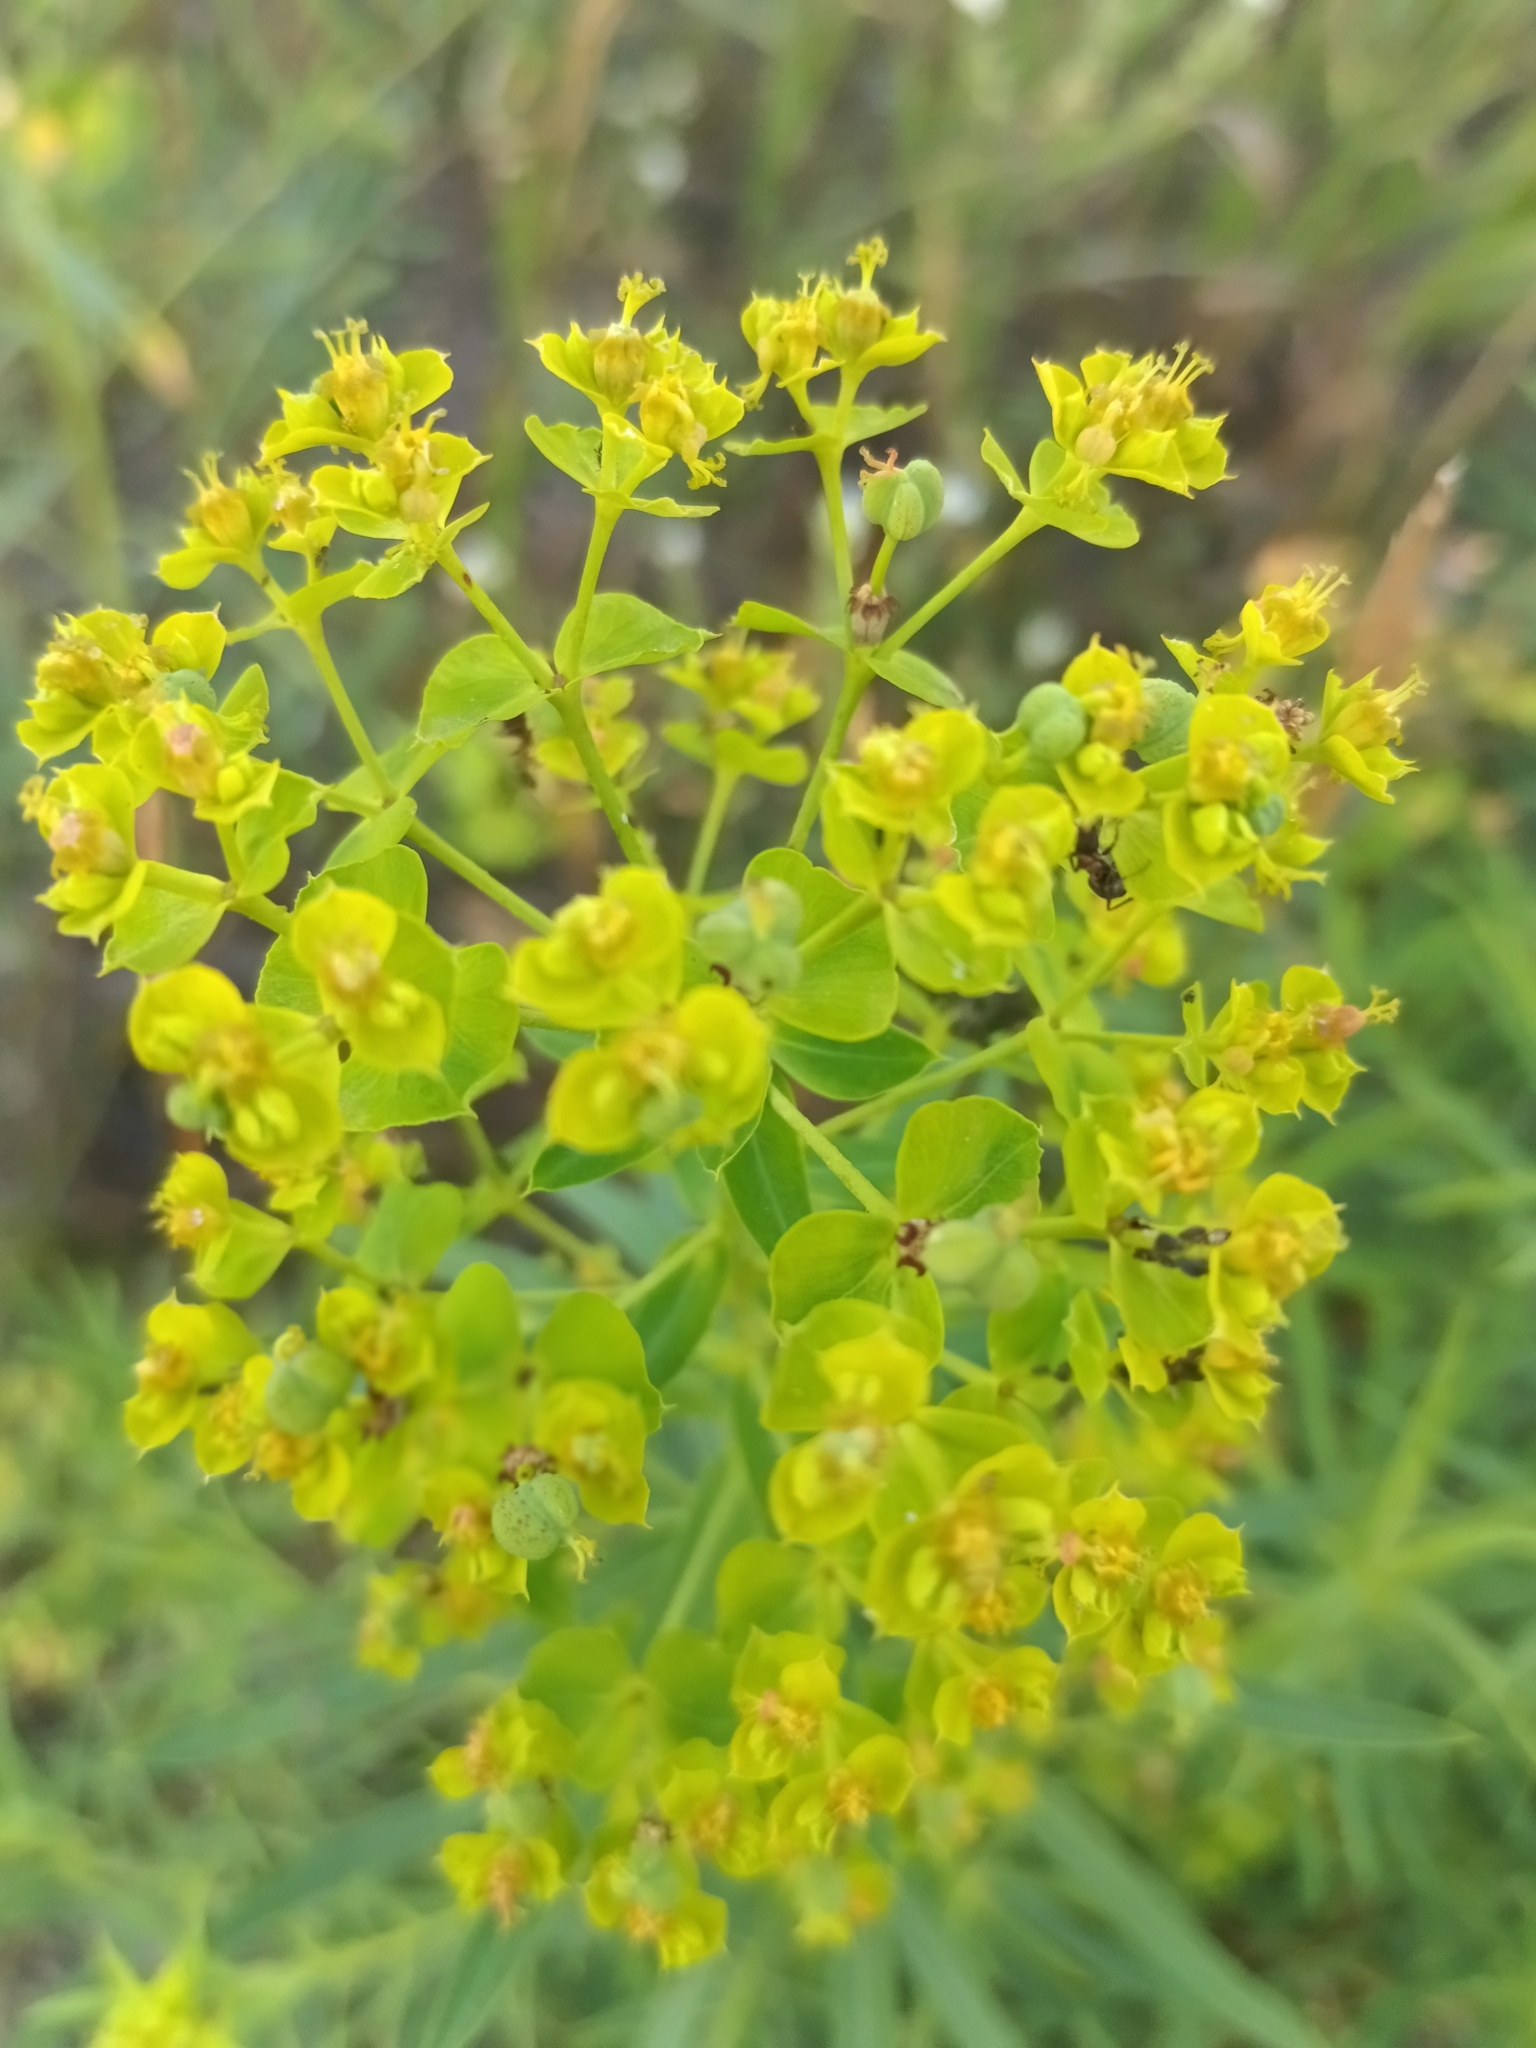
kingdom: Plantae
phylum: Tracheophyta
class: Magnoliopsida
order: Malpighiales
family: Euphorbiaceae
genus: Euphorbia
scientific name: Euphorbia virgata
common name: Leafy spurge
